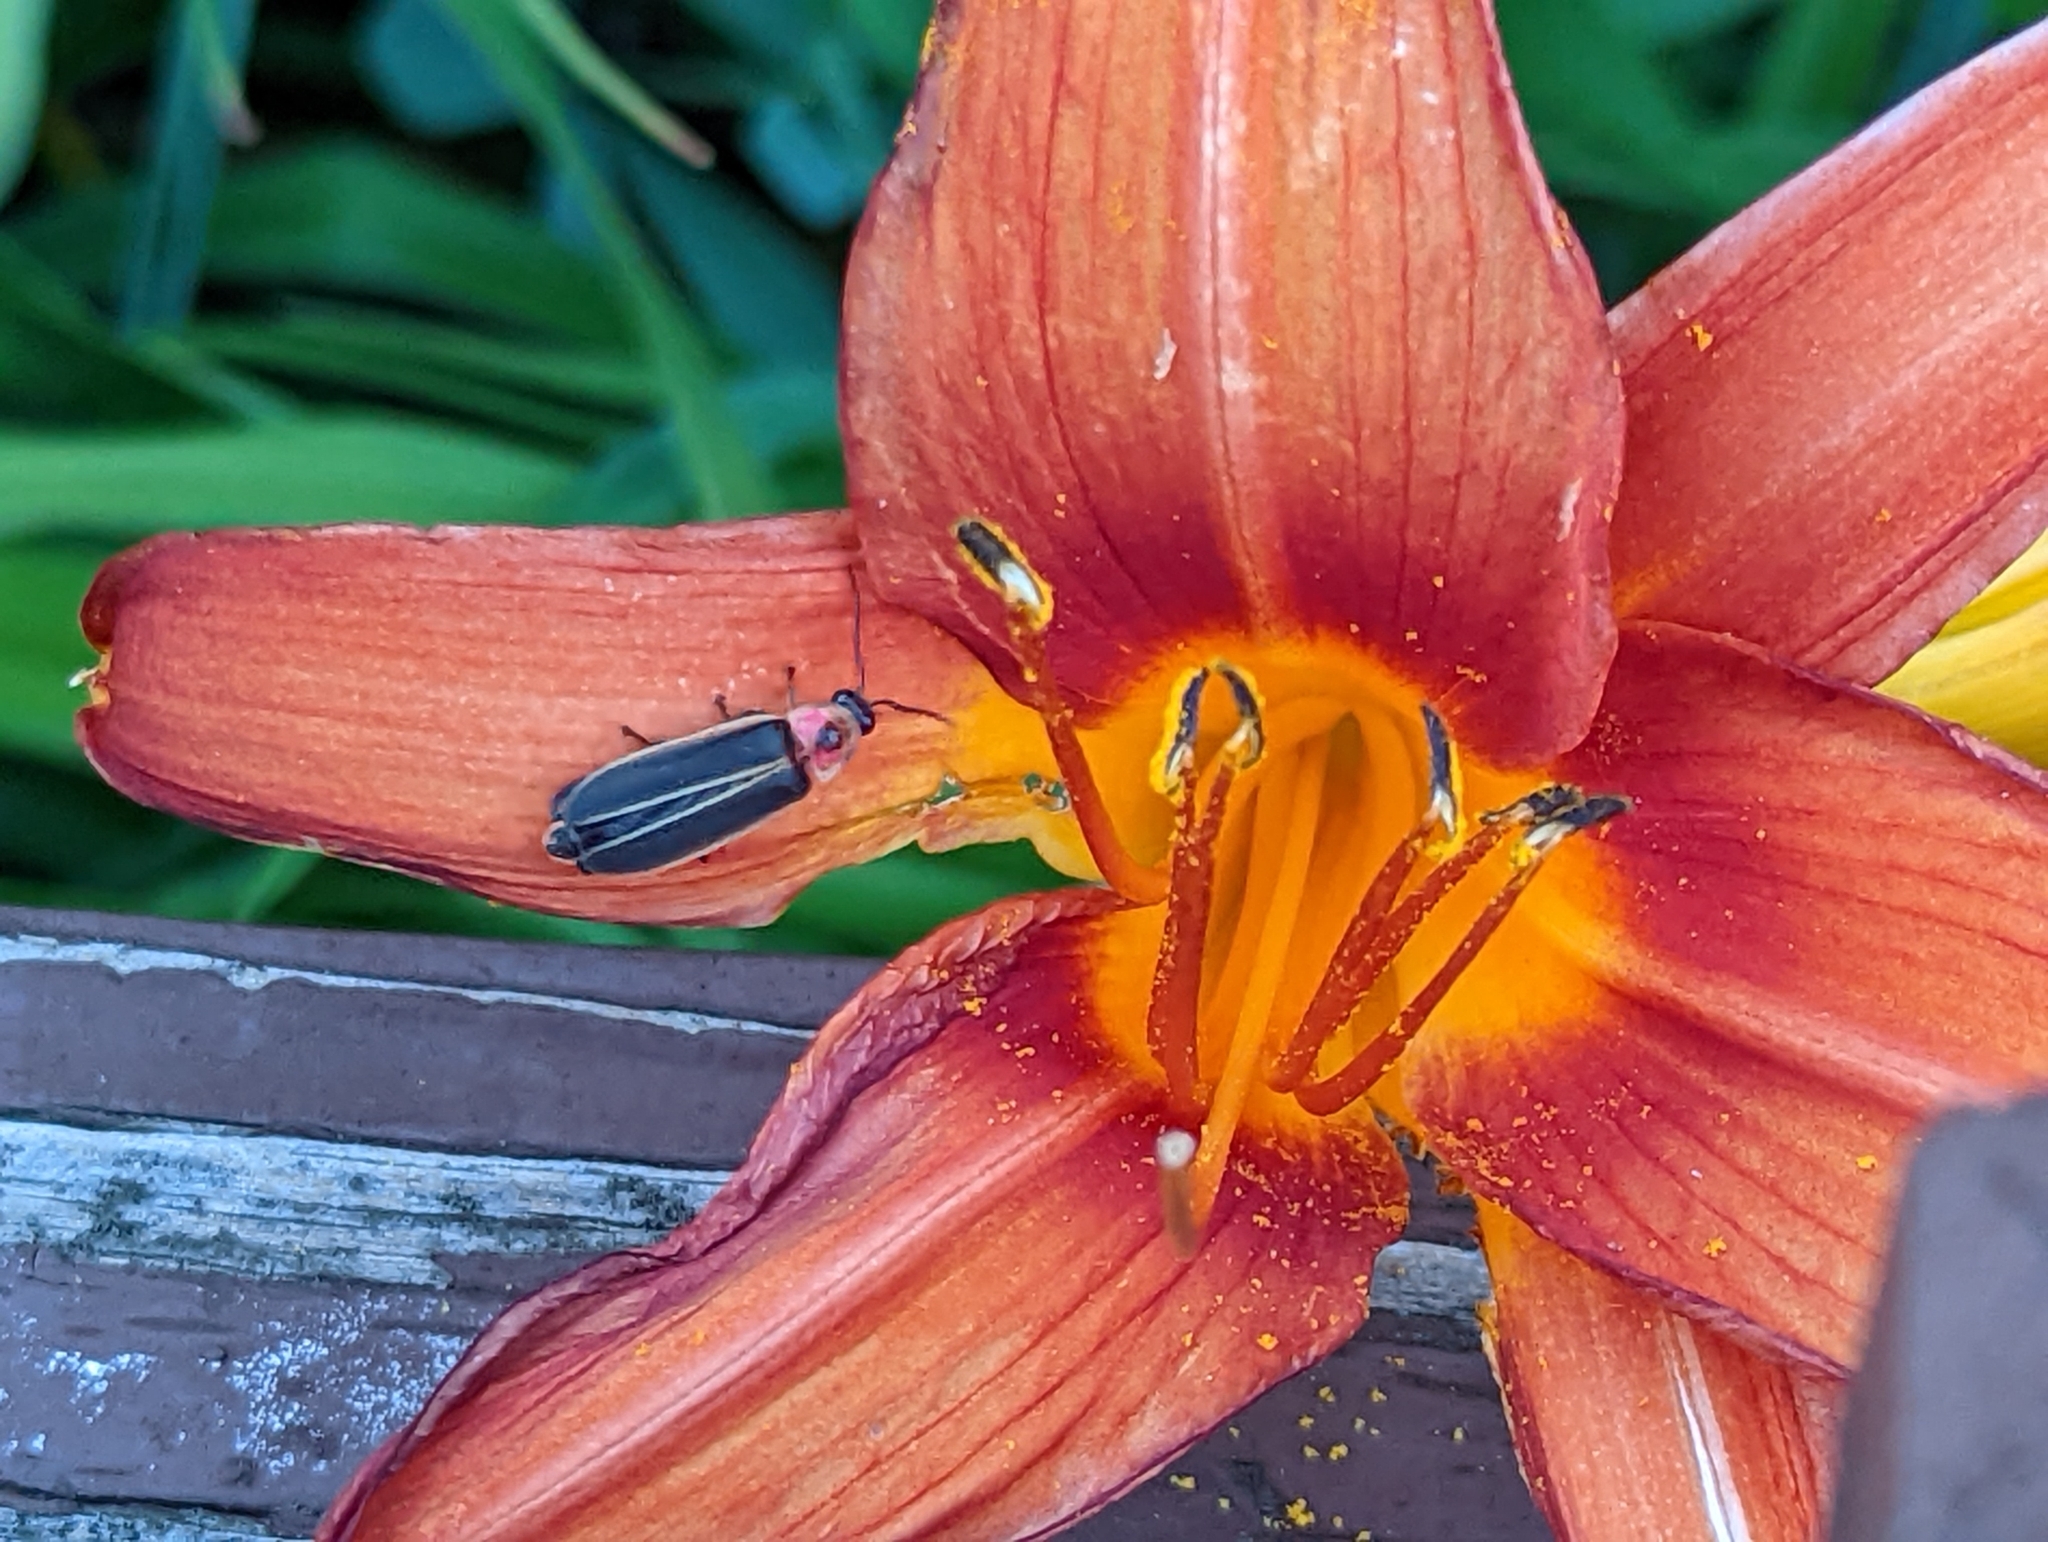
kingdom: Plantae
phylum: Tracheophyta
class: Liliopsida
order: Asparagales
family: Asphodelaceae
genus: Hemerocallis
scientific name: Hemerocallis fulva
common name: Orange day-lily
